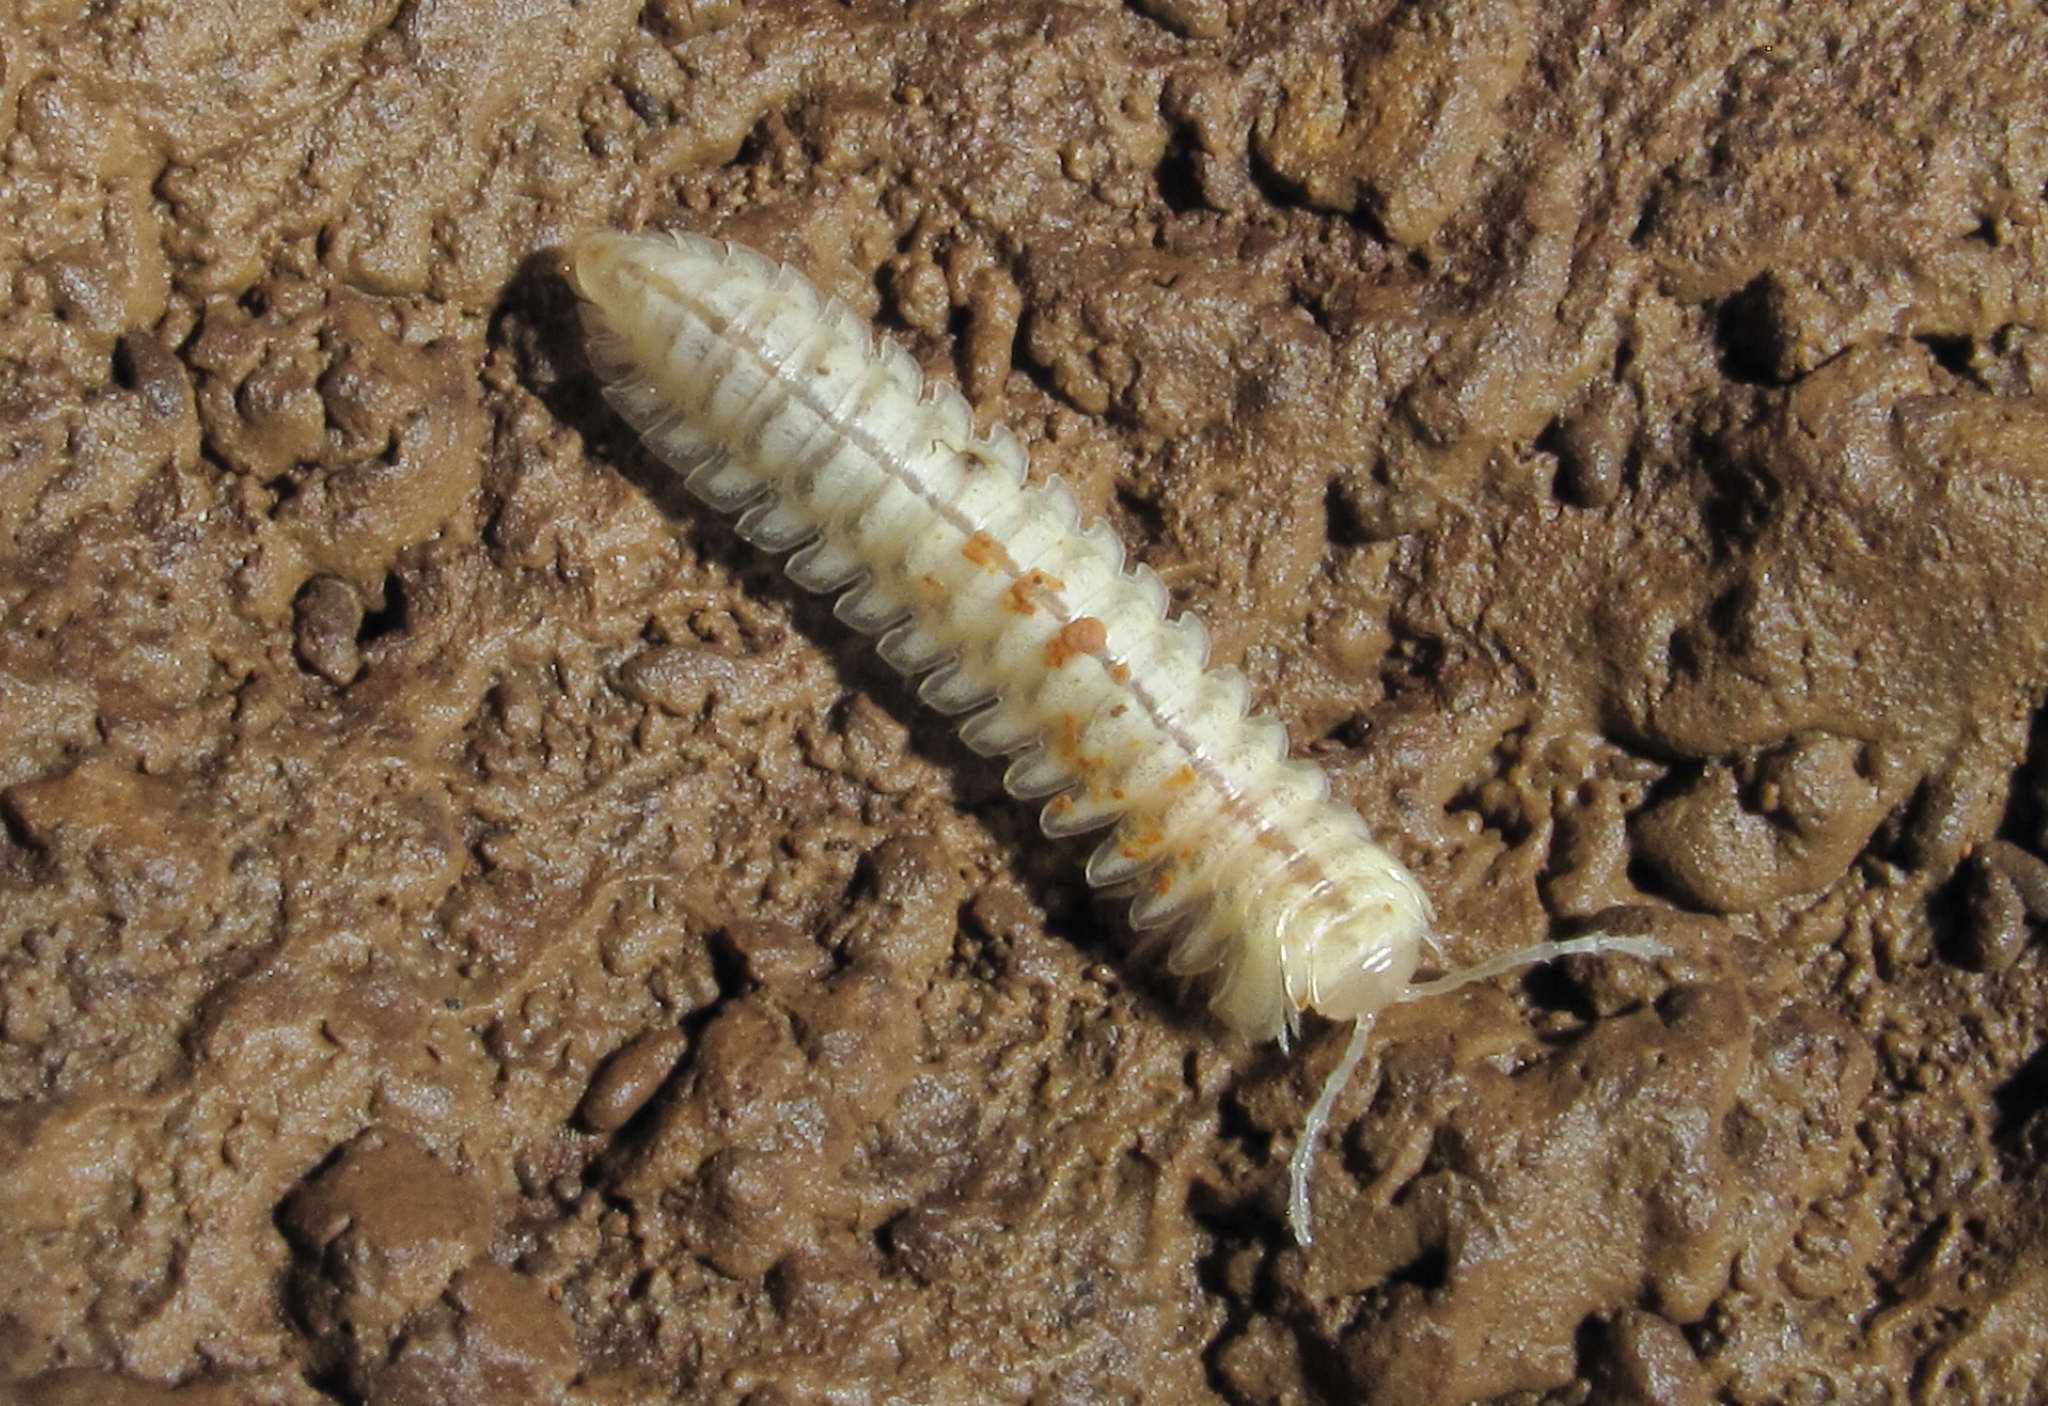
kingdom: Animalia
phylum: Arthropoda
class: Diplopoda
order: Polydesmida
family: Sphaeriodesmidae
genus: Haplocyclodesmus
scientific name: Haplocyclodesmus angustipes
